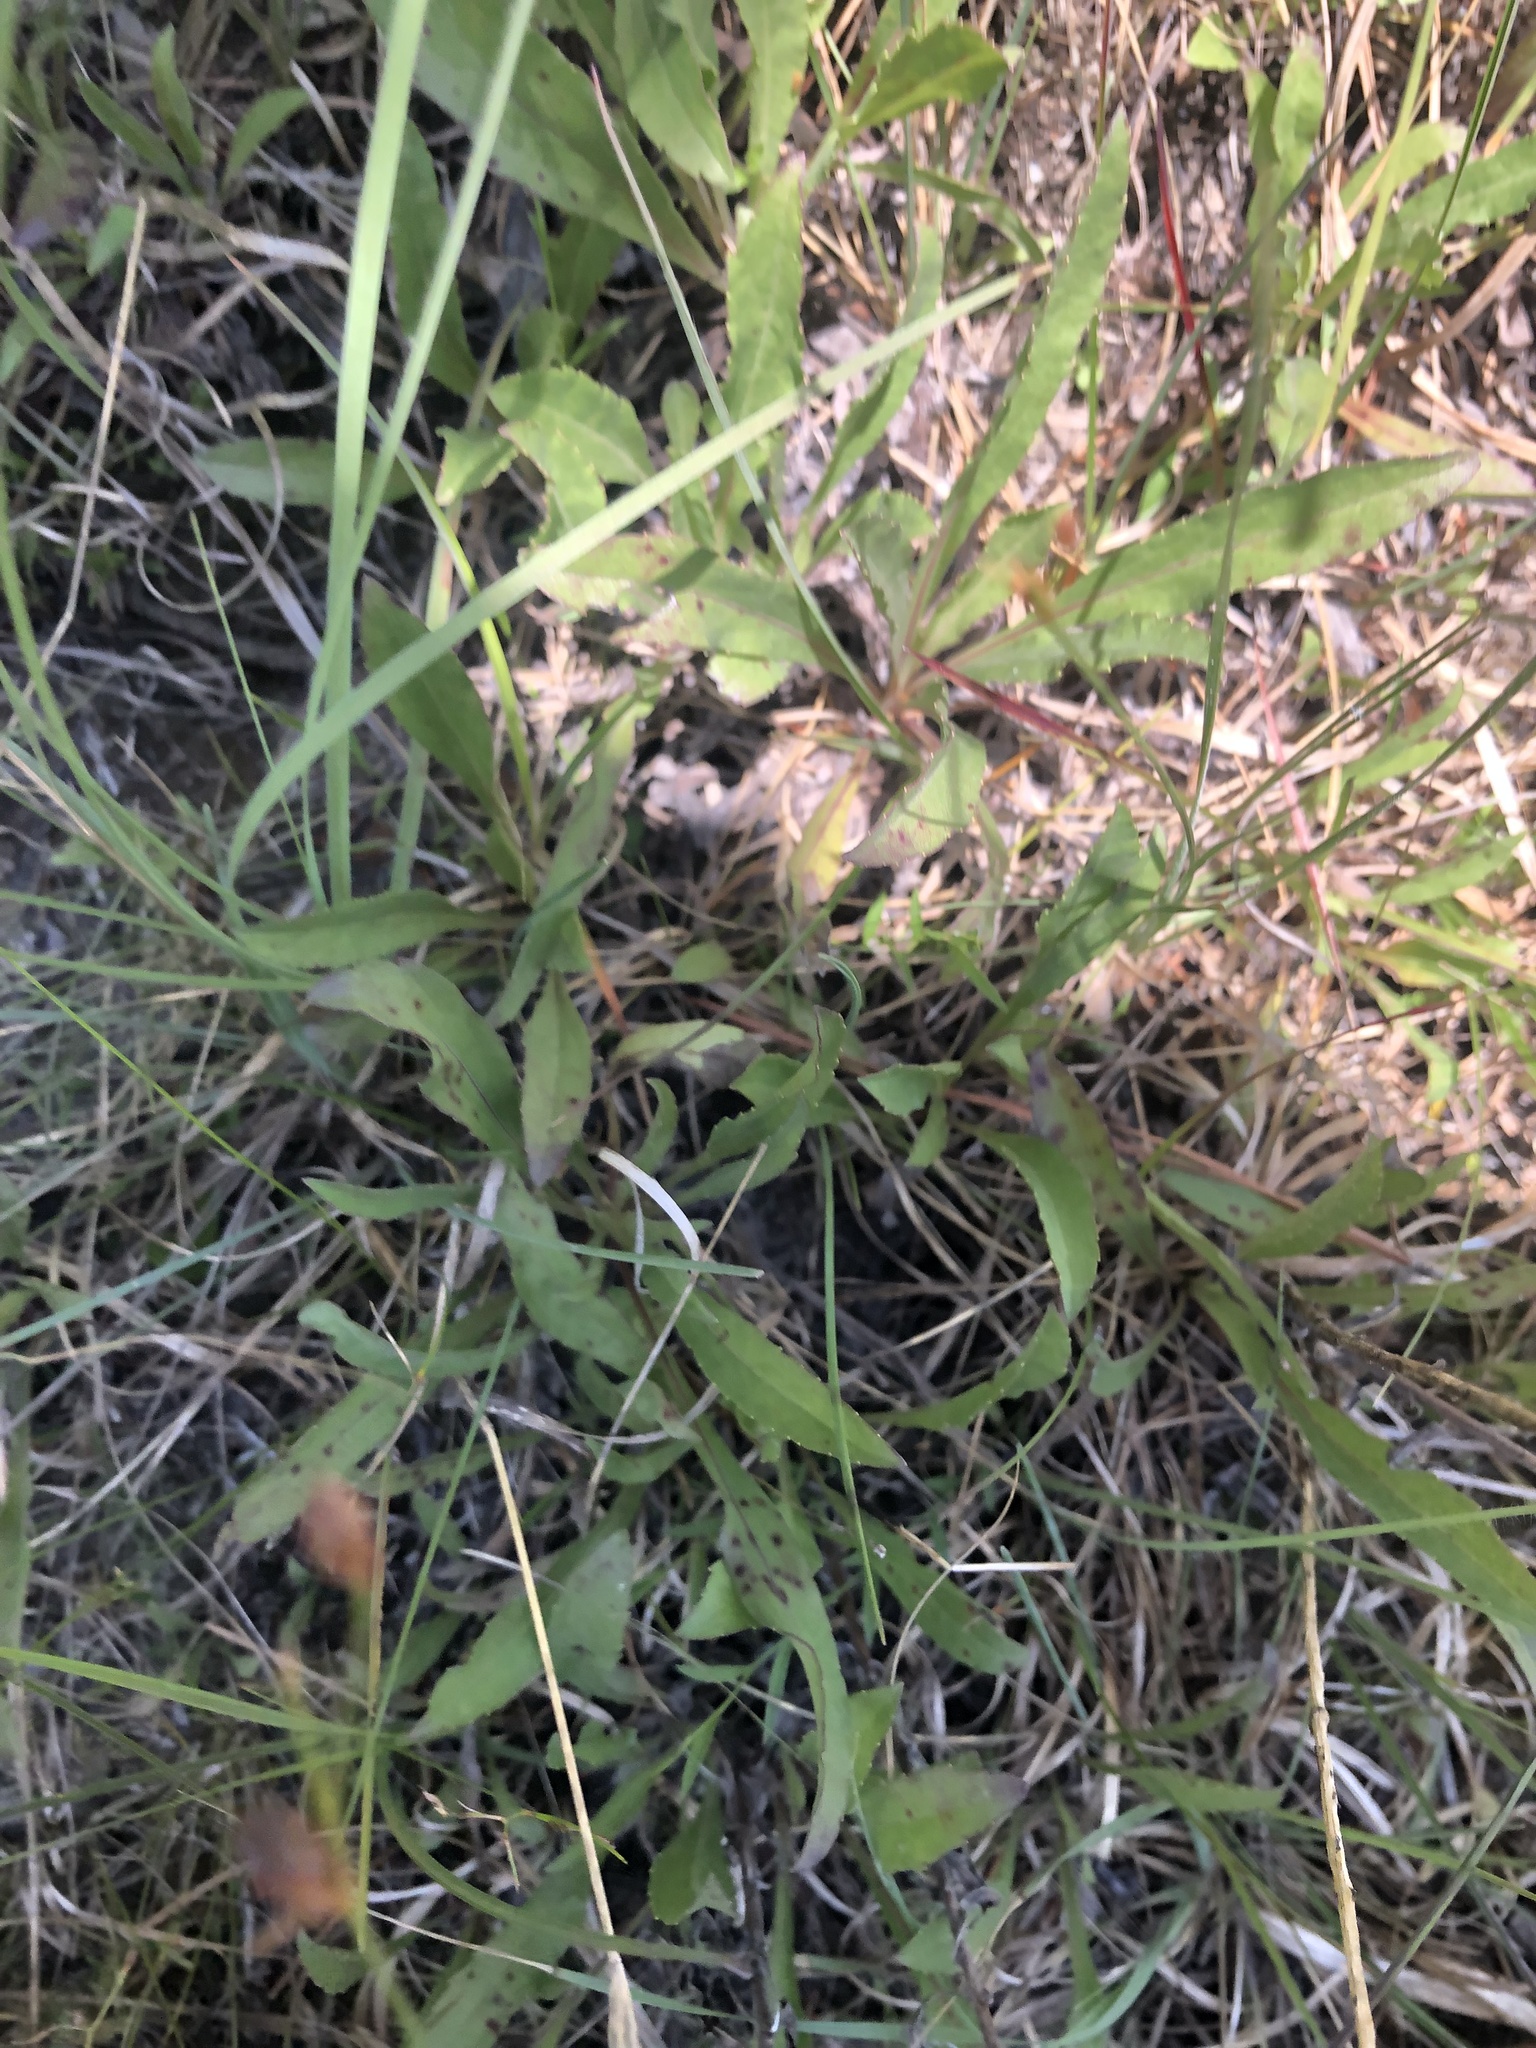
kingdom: Plantae
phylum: Tracheophyta
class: Magnoliopsida
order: Asterales
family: Asteraceae
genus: Solidago
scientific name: Solidago nemoralis
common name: Grey goldenrod
